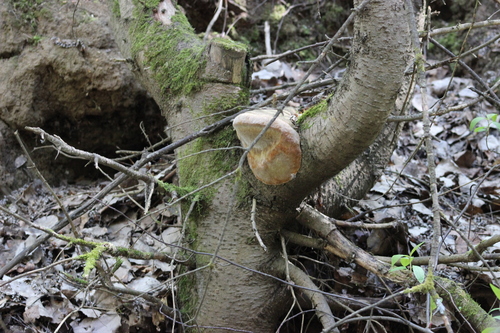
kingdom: Fungi
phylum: Basidiomycota
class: Agaricomycetes
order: Hymenochaetales
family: Hymenochaetaceae
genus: Phellinus
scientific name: Phellinus hartigii
